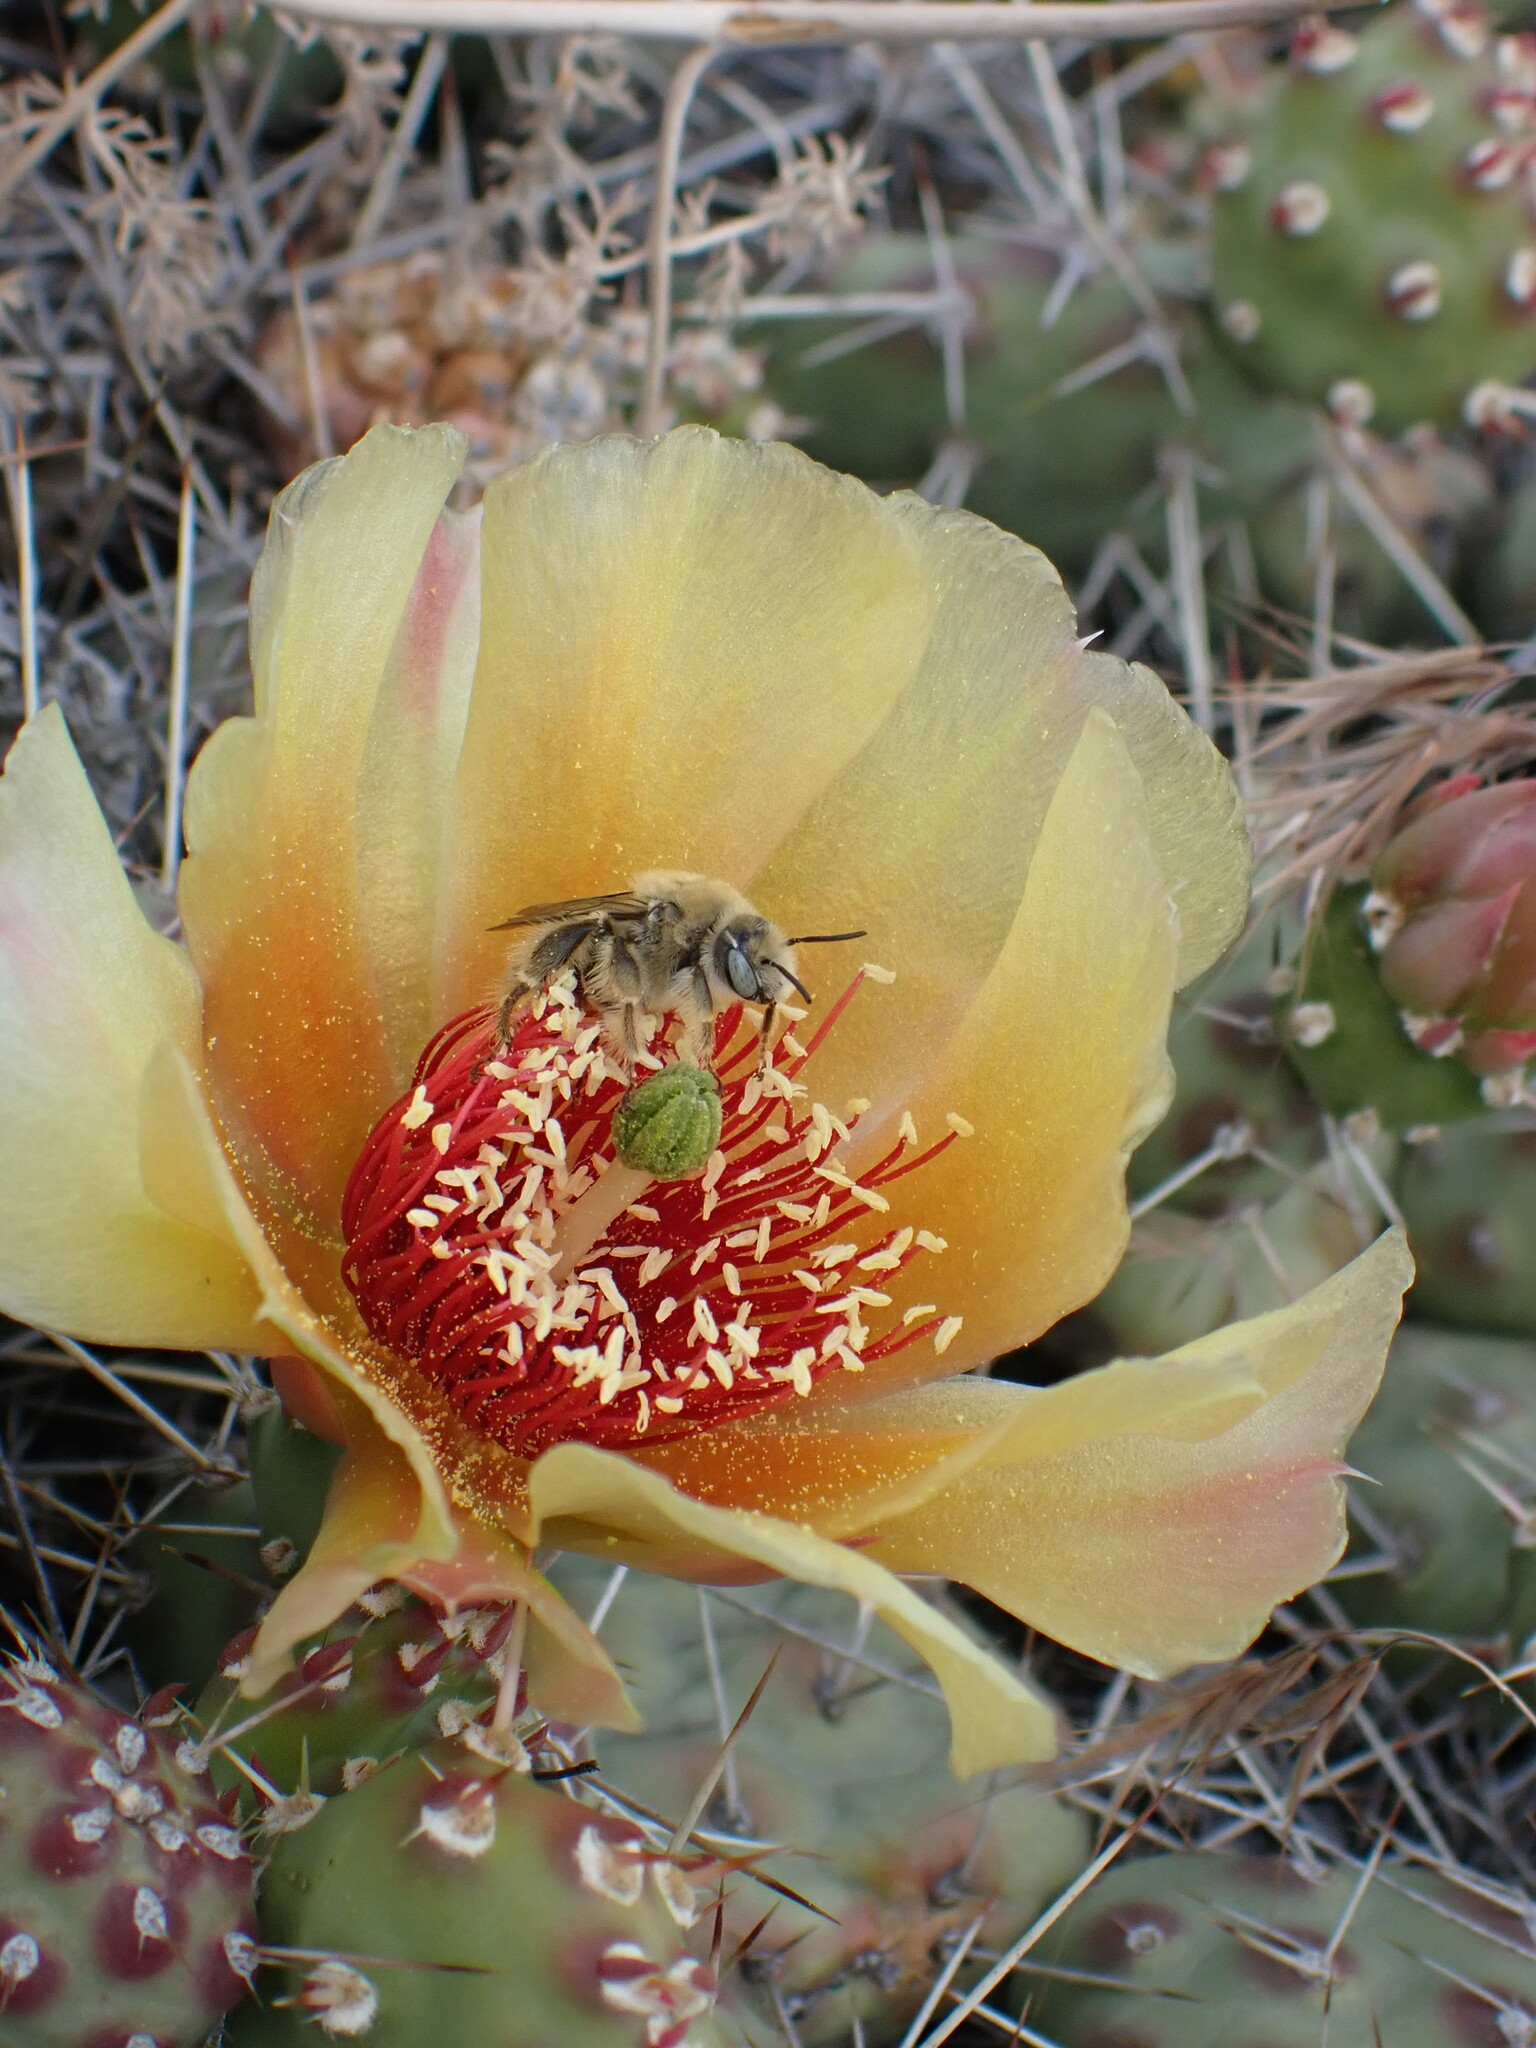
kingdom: Animalia
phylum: Arthropoda
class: Insecta
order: Hymenoptera
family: Apidae
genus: Diadasia
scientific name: Diadasia australis
